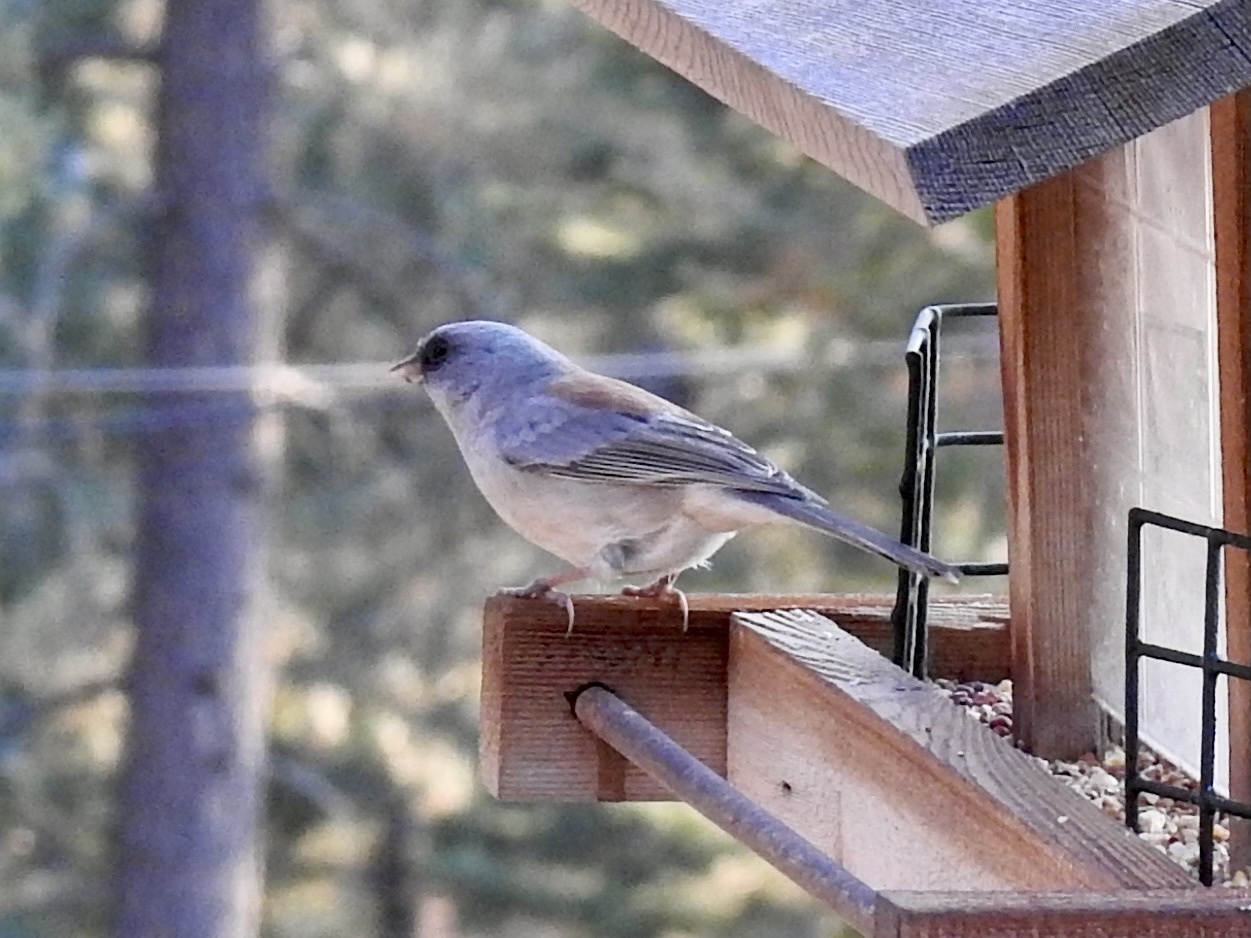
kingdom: Animalia
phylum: Chordata
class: Aves
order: Passeriformes
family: Passerellidae
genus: Junco
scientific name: Junco hyemalis
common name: Dark-eyed junco
